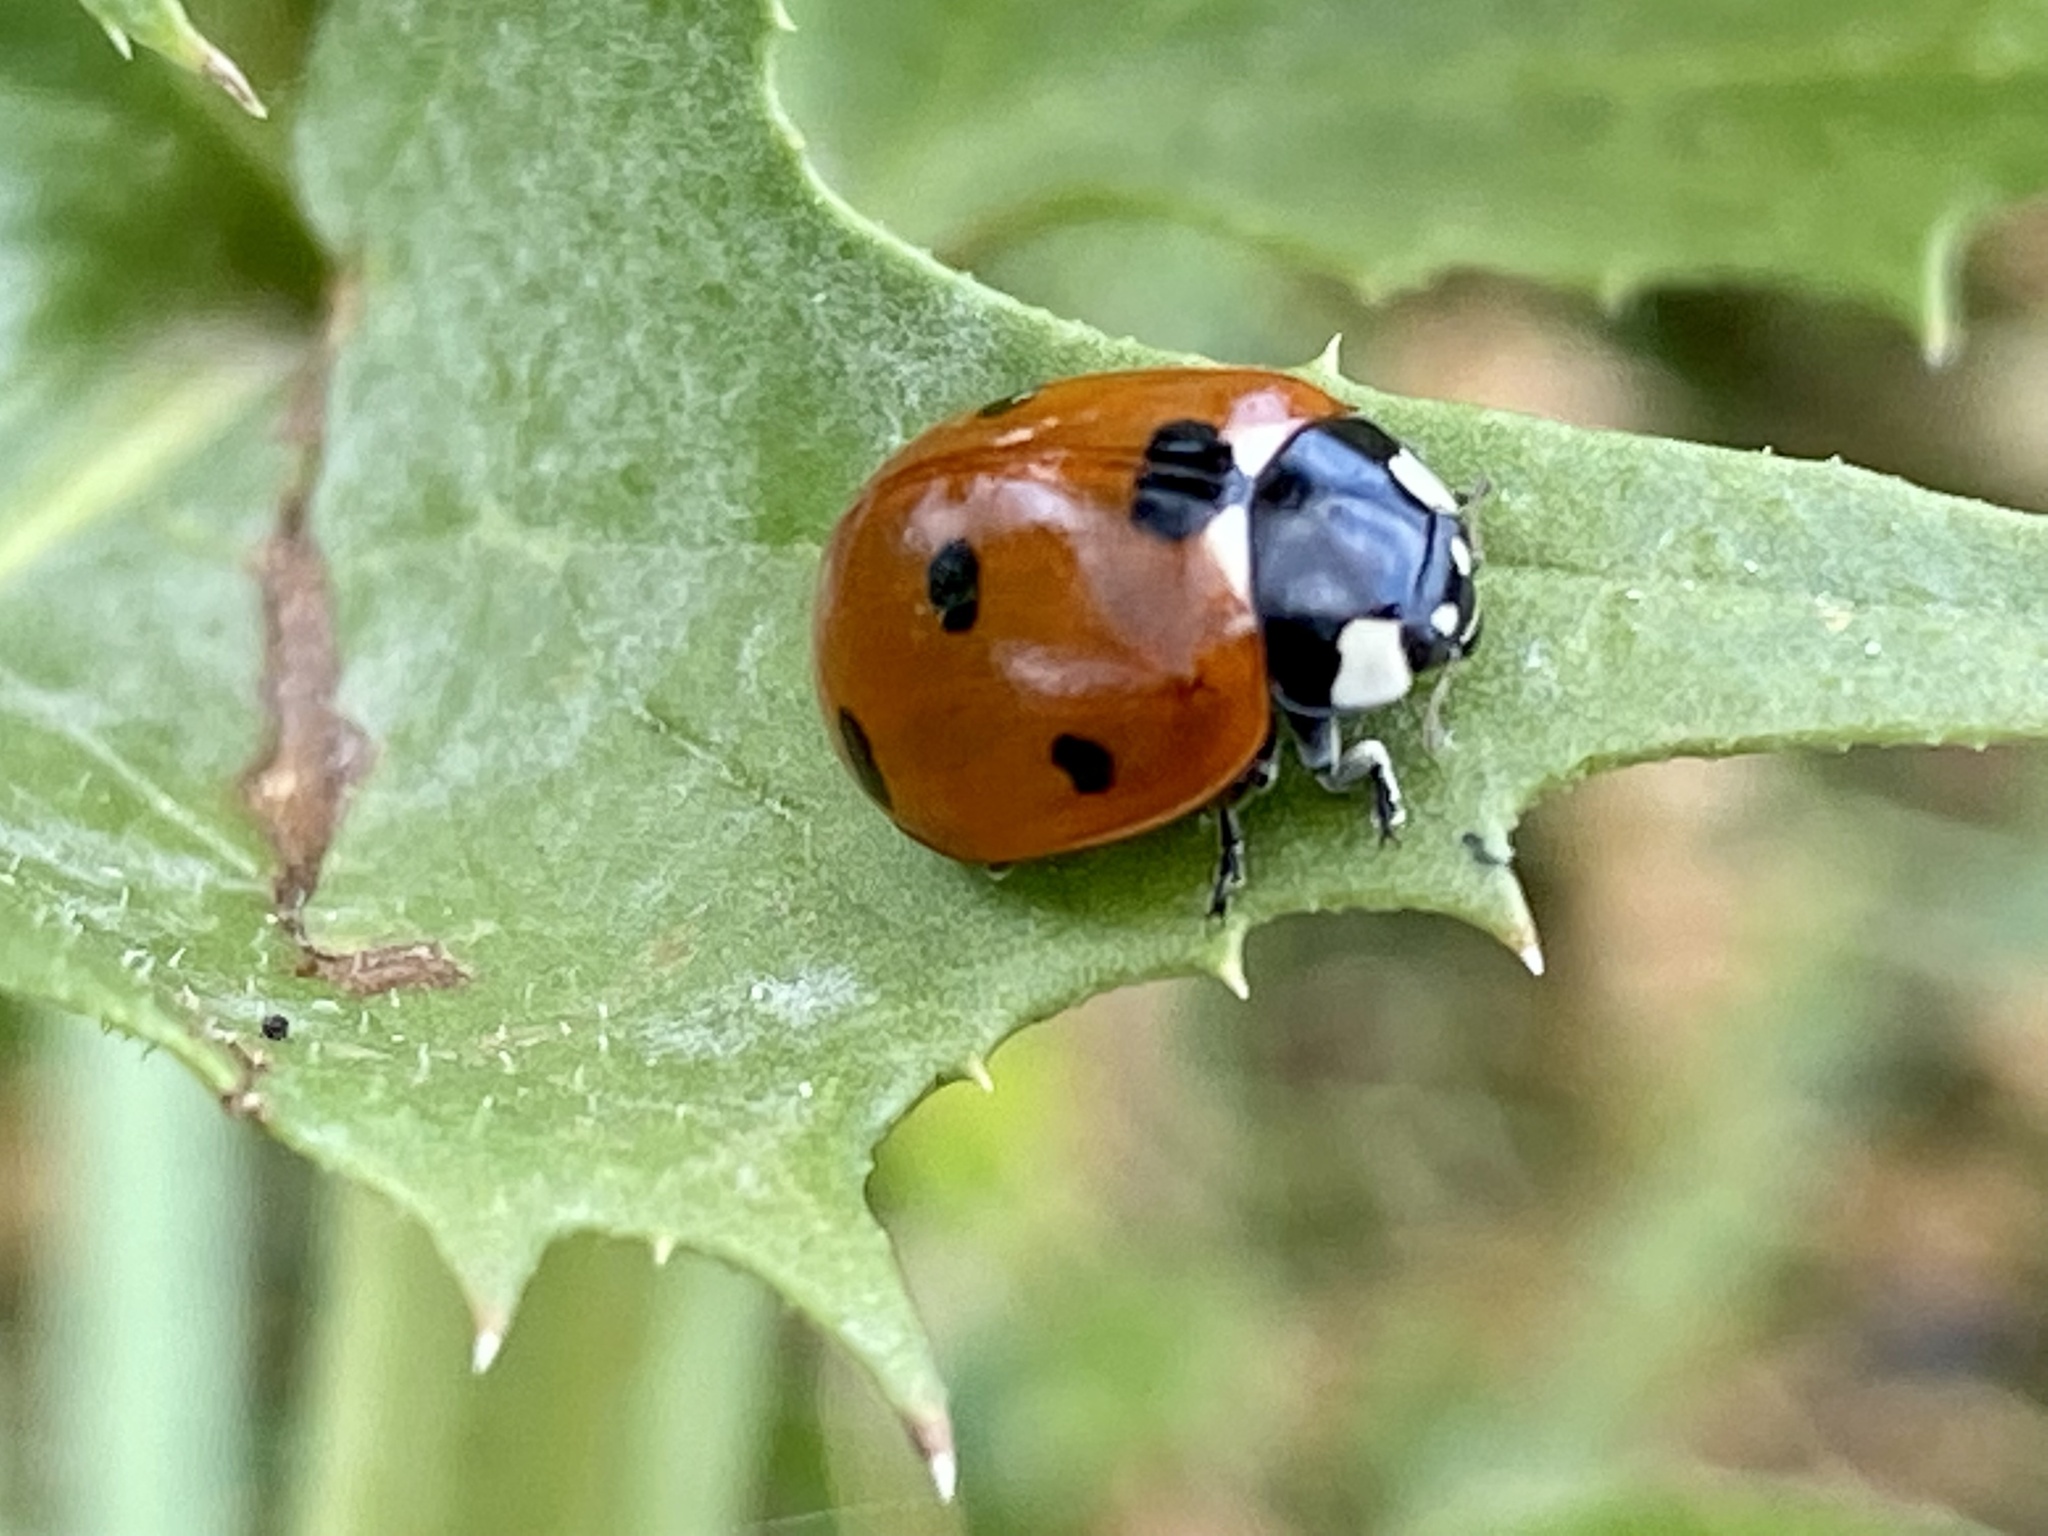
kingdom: Animalia
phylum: Arthropoda
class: Insecta
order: Coleoptera
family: Coccinellidae
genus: Coccinella
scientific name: Coccinella septempunctata
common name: Sevenspotted lady beetle
